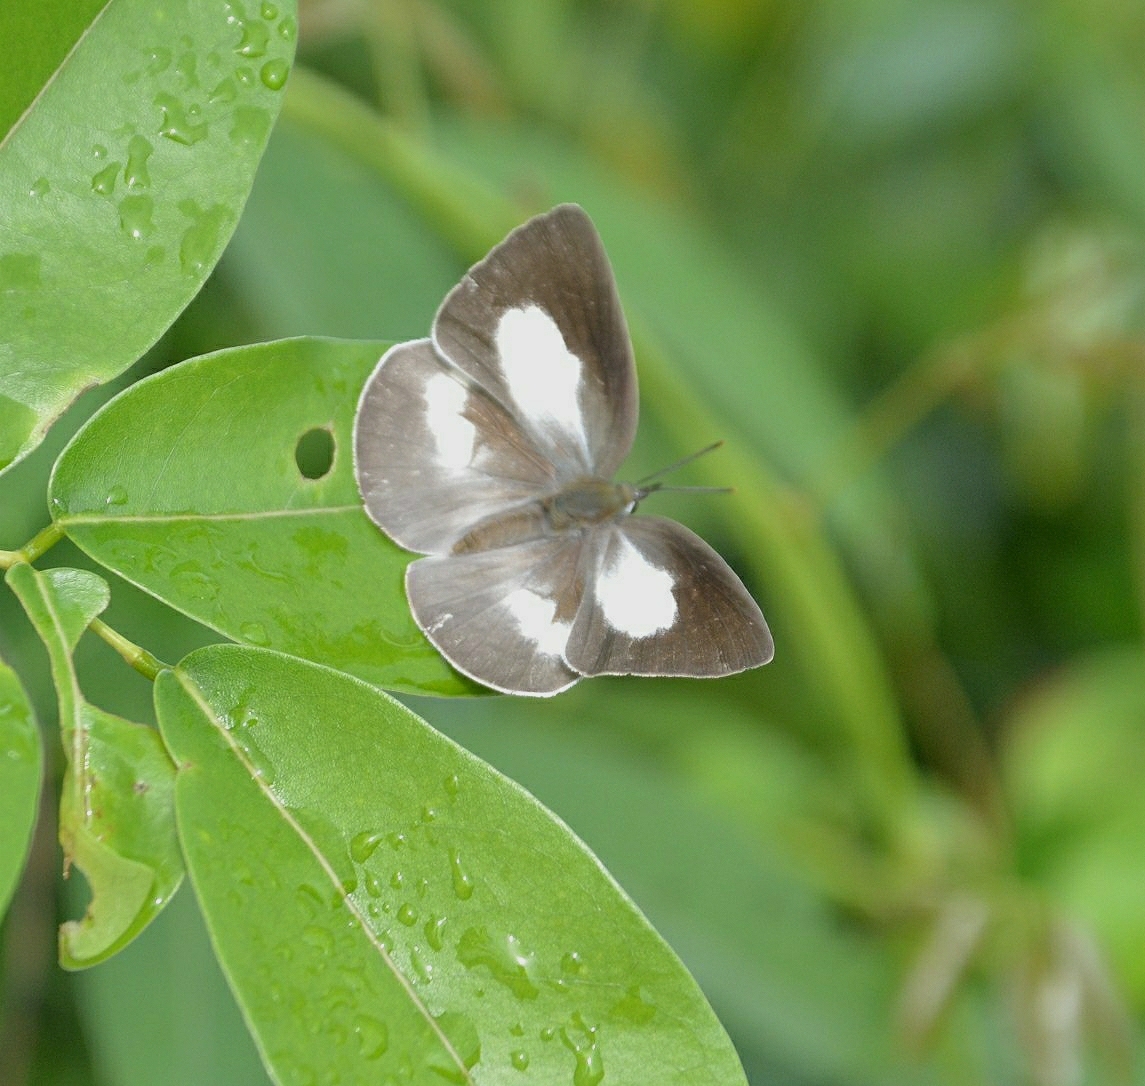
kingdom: Animalia
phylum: Arthropoda
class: Insecta
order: Lepidoptera
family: Lycaenidae
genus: Curetis
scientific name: Curetis thetis
